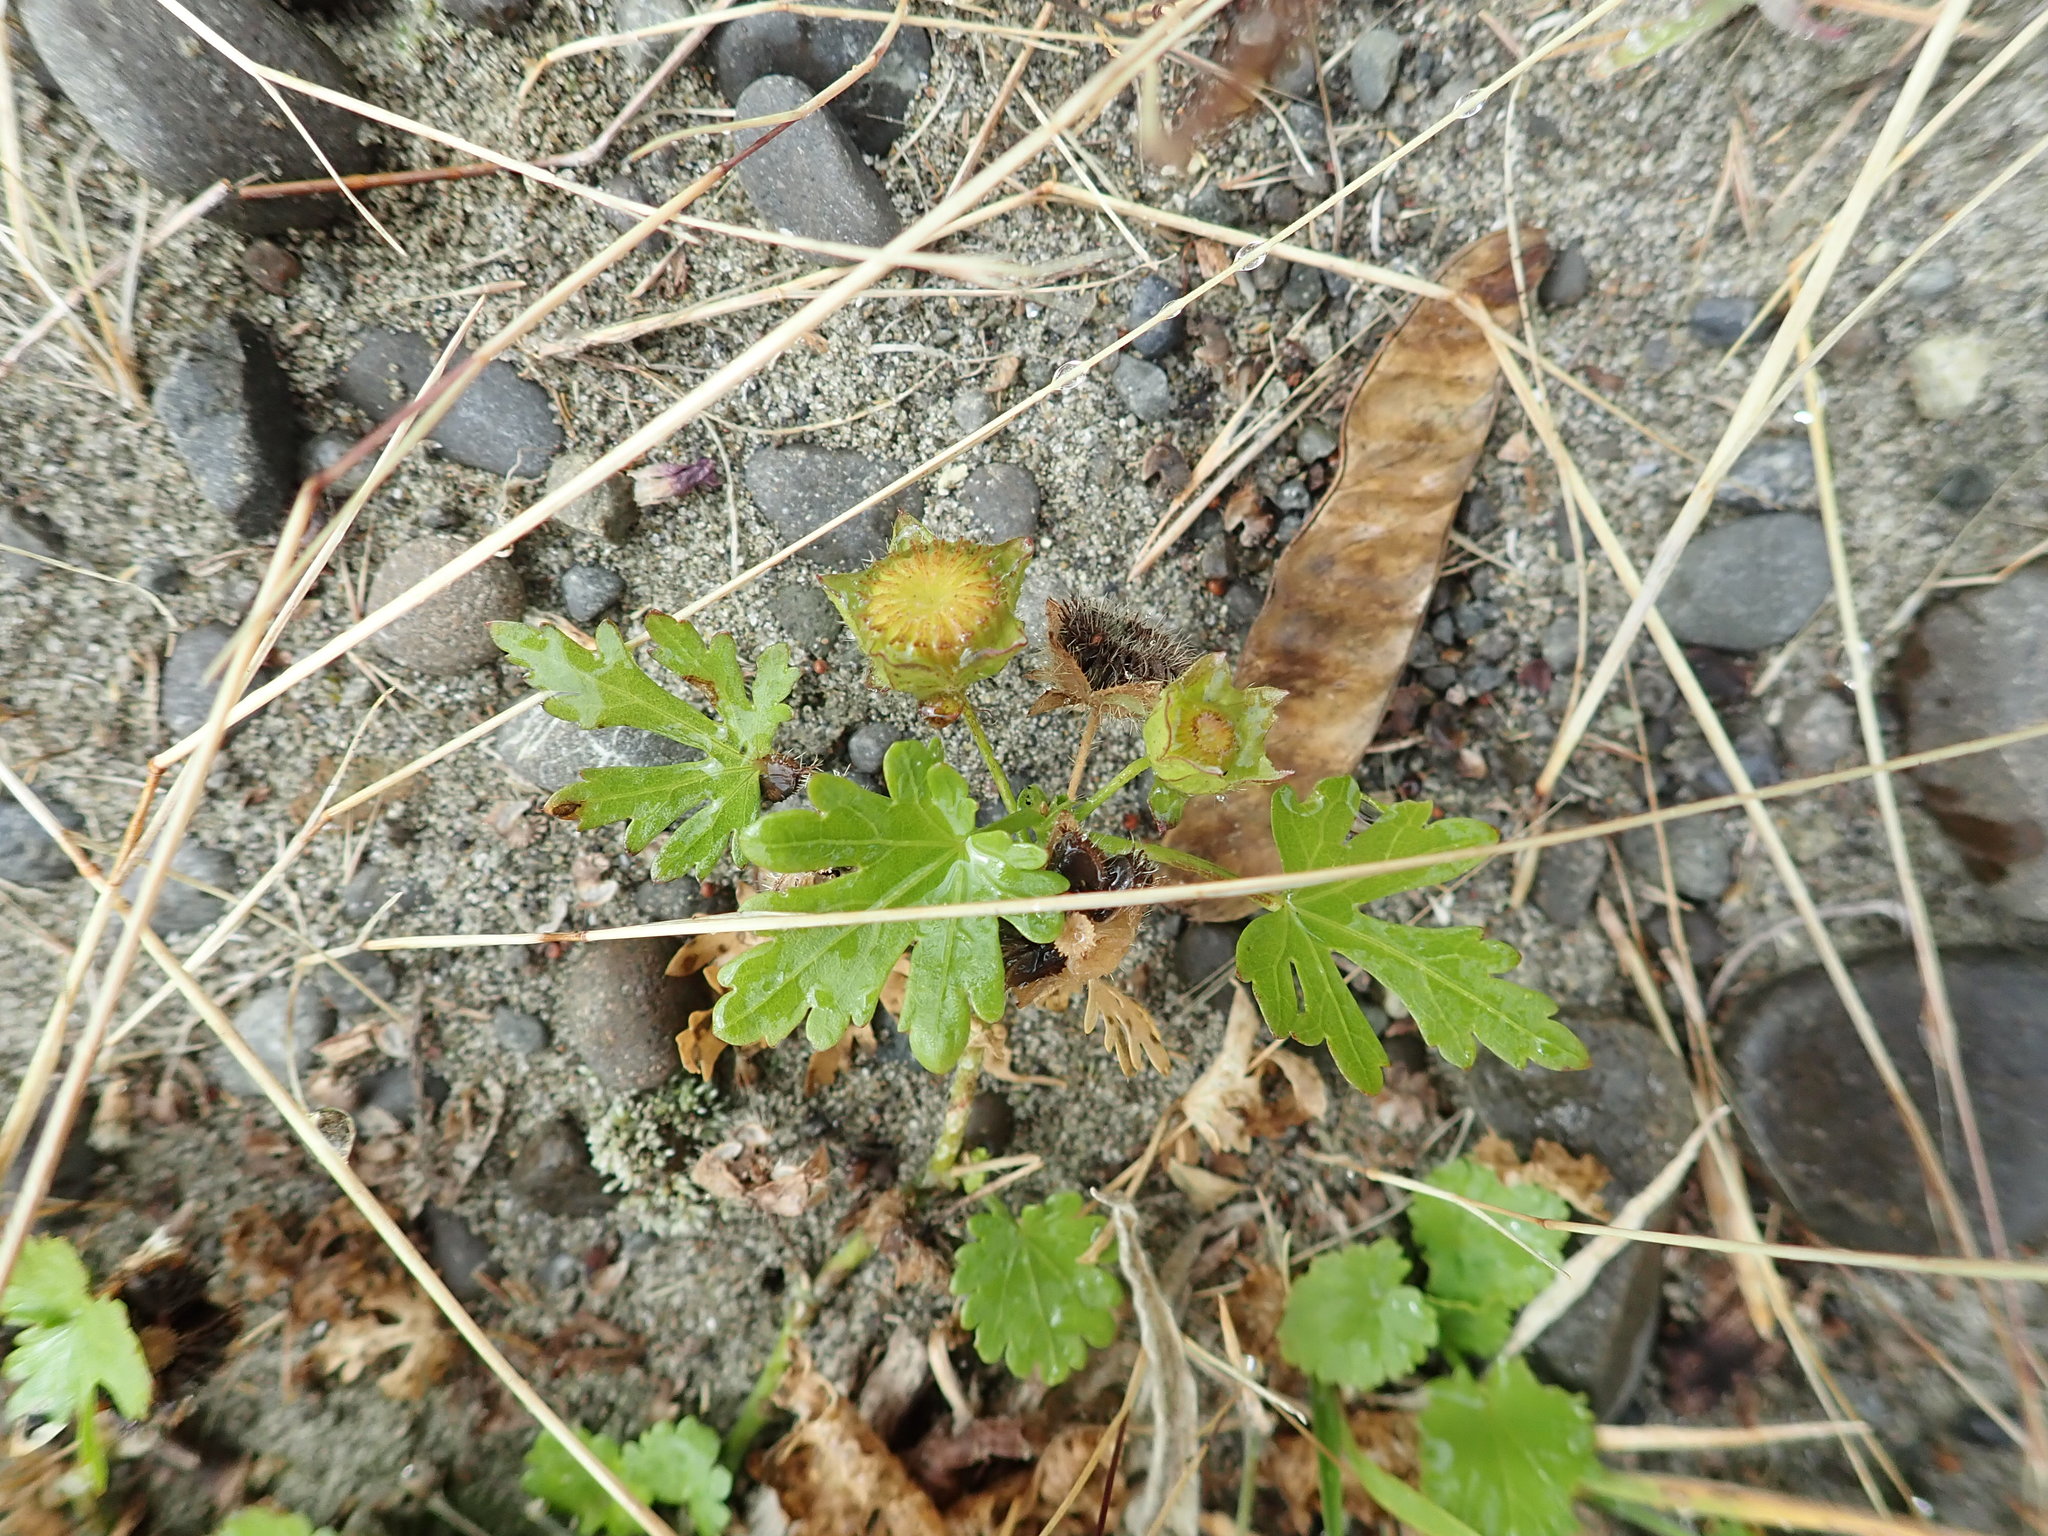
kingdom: Plantae
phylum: Tracheophyta
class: Magnoliopsida
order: Malvales
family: Malvaceae
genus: Modiola
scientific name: Modiola caroliniana
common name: Carolina bristlemallow
